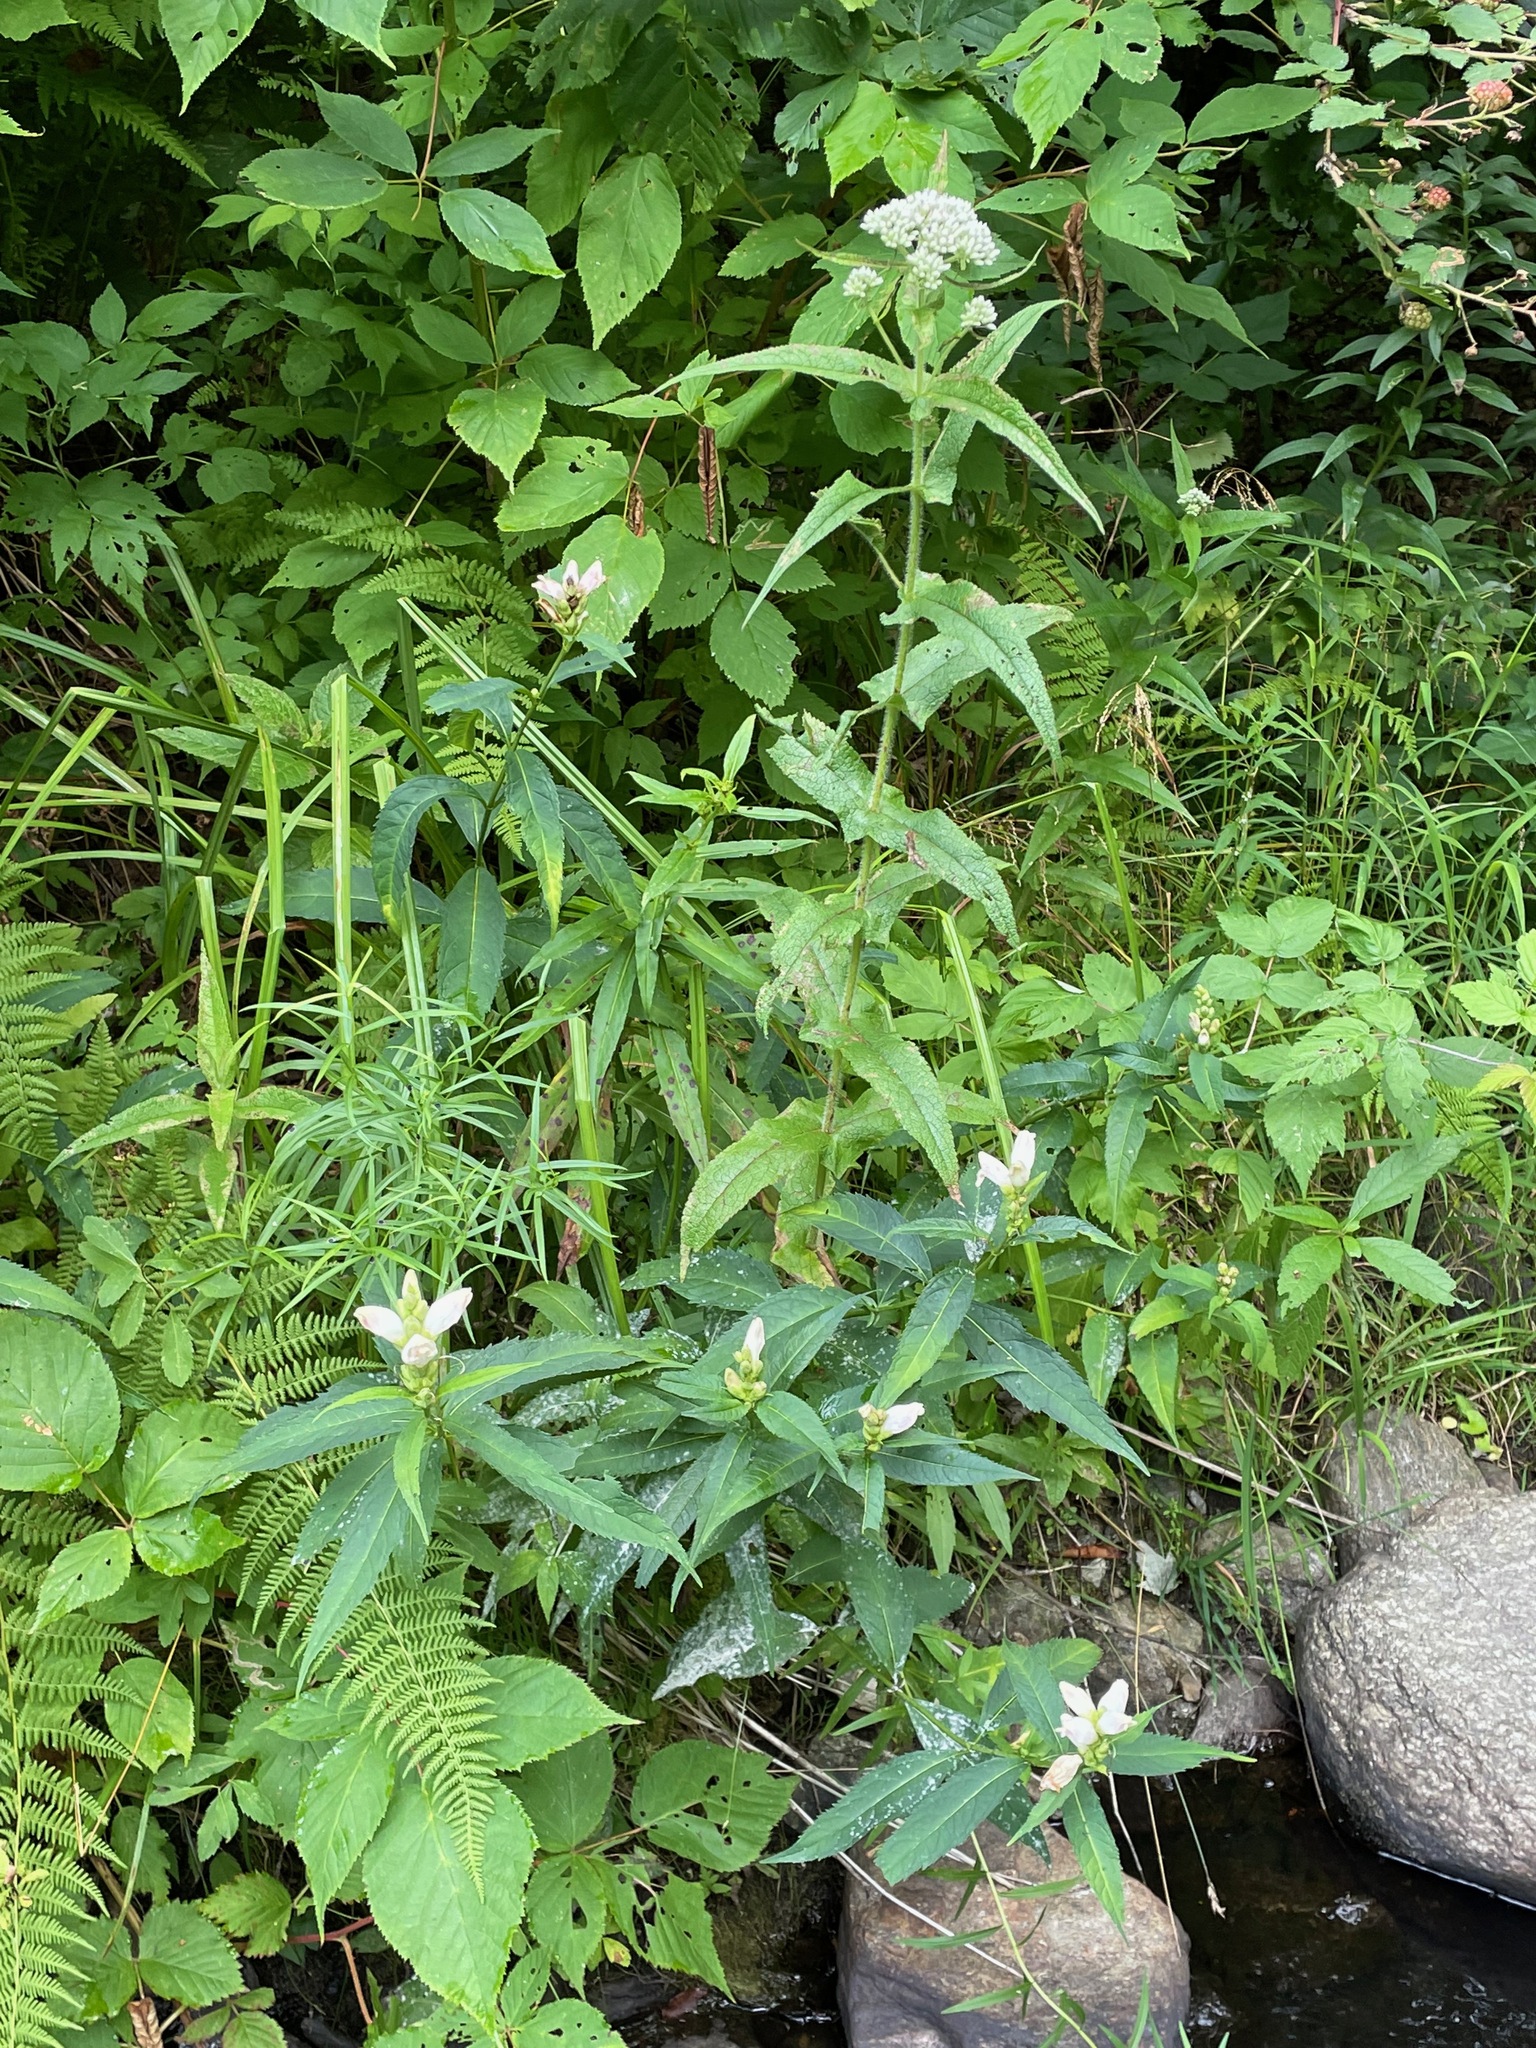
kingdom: Plantae
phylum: Tracheophyta
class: Magnoliopsida
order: Asterales
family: Asteraceae
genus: Eupatorium
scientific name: Eupatorium perfoliatum
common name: Boneset
